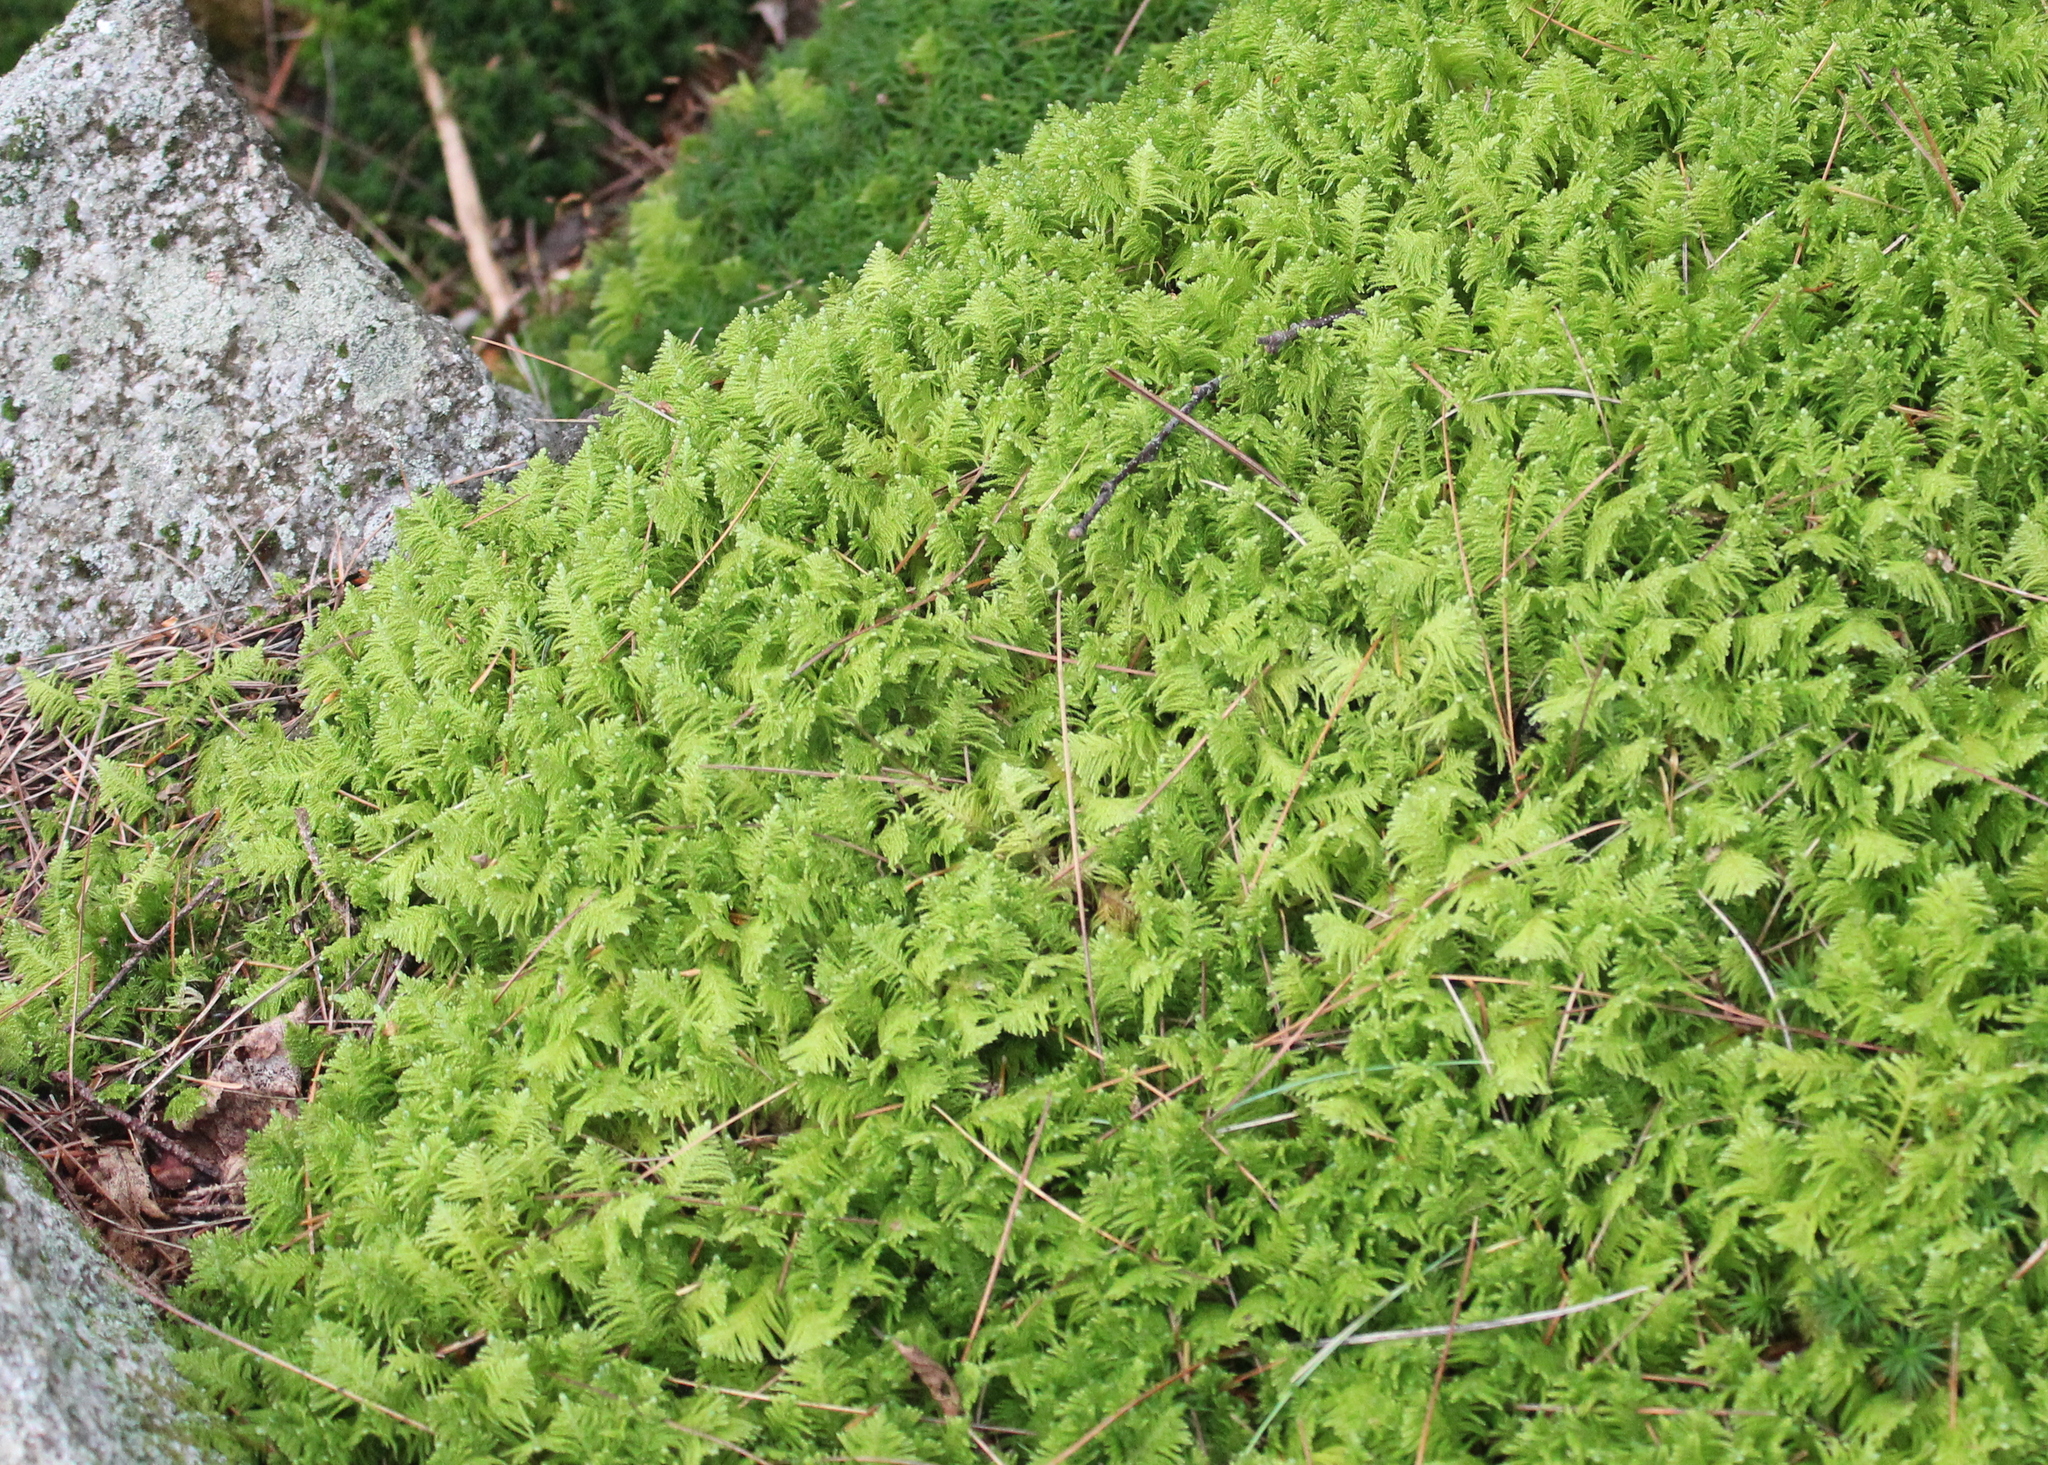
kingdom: Plantae
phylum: Bryophyta
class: Bryopsida
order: Hypnales
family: Pylaisiaceae
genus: Ptilium
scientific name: Ptilium crista-castrensis
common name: Knight's plume moss
